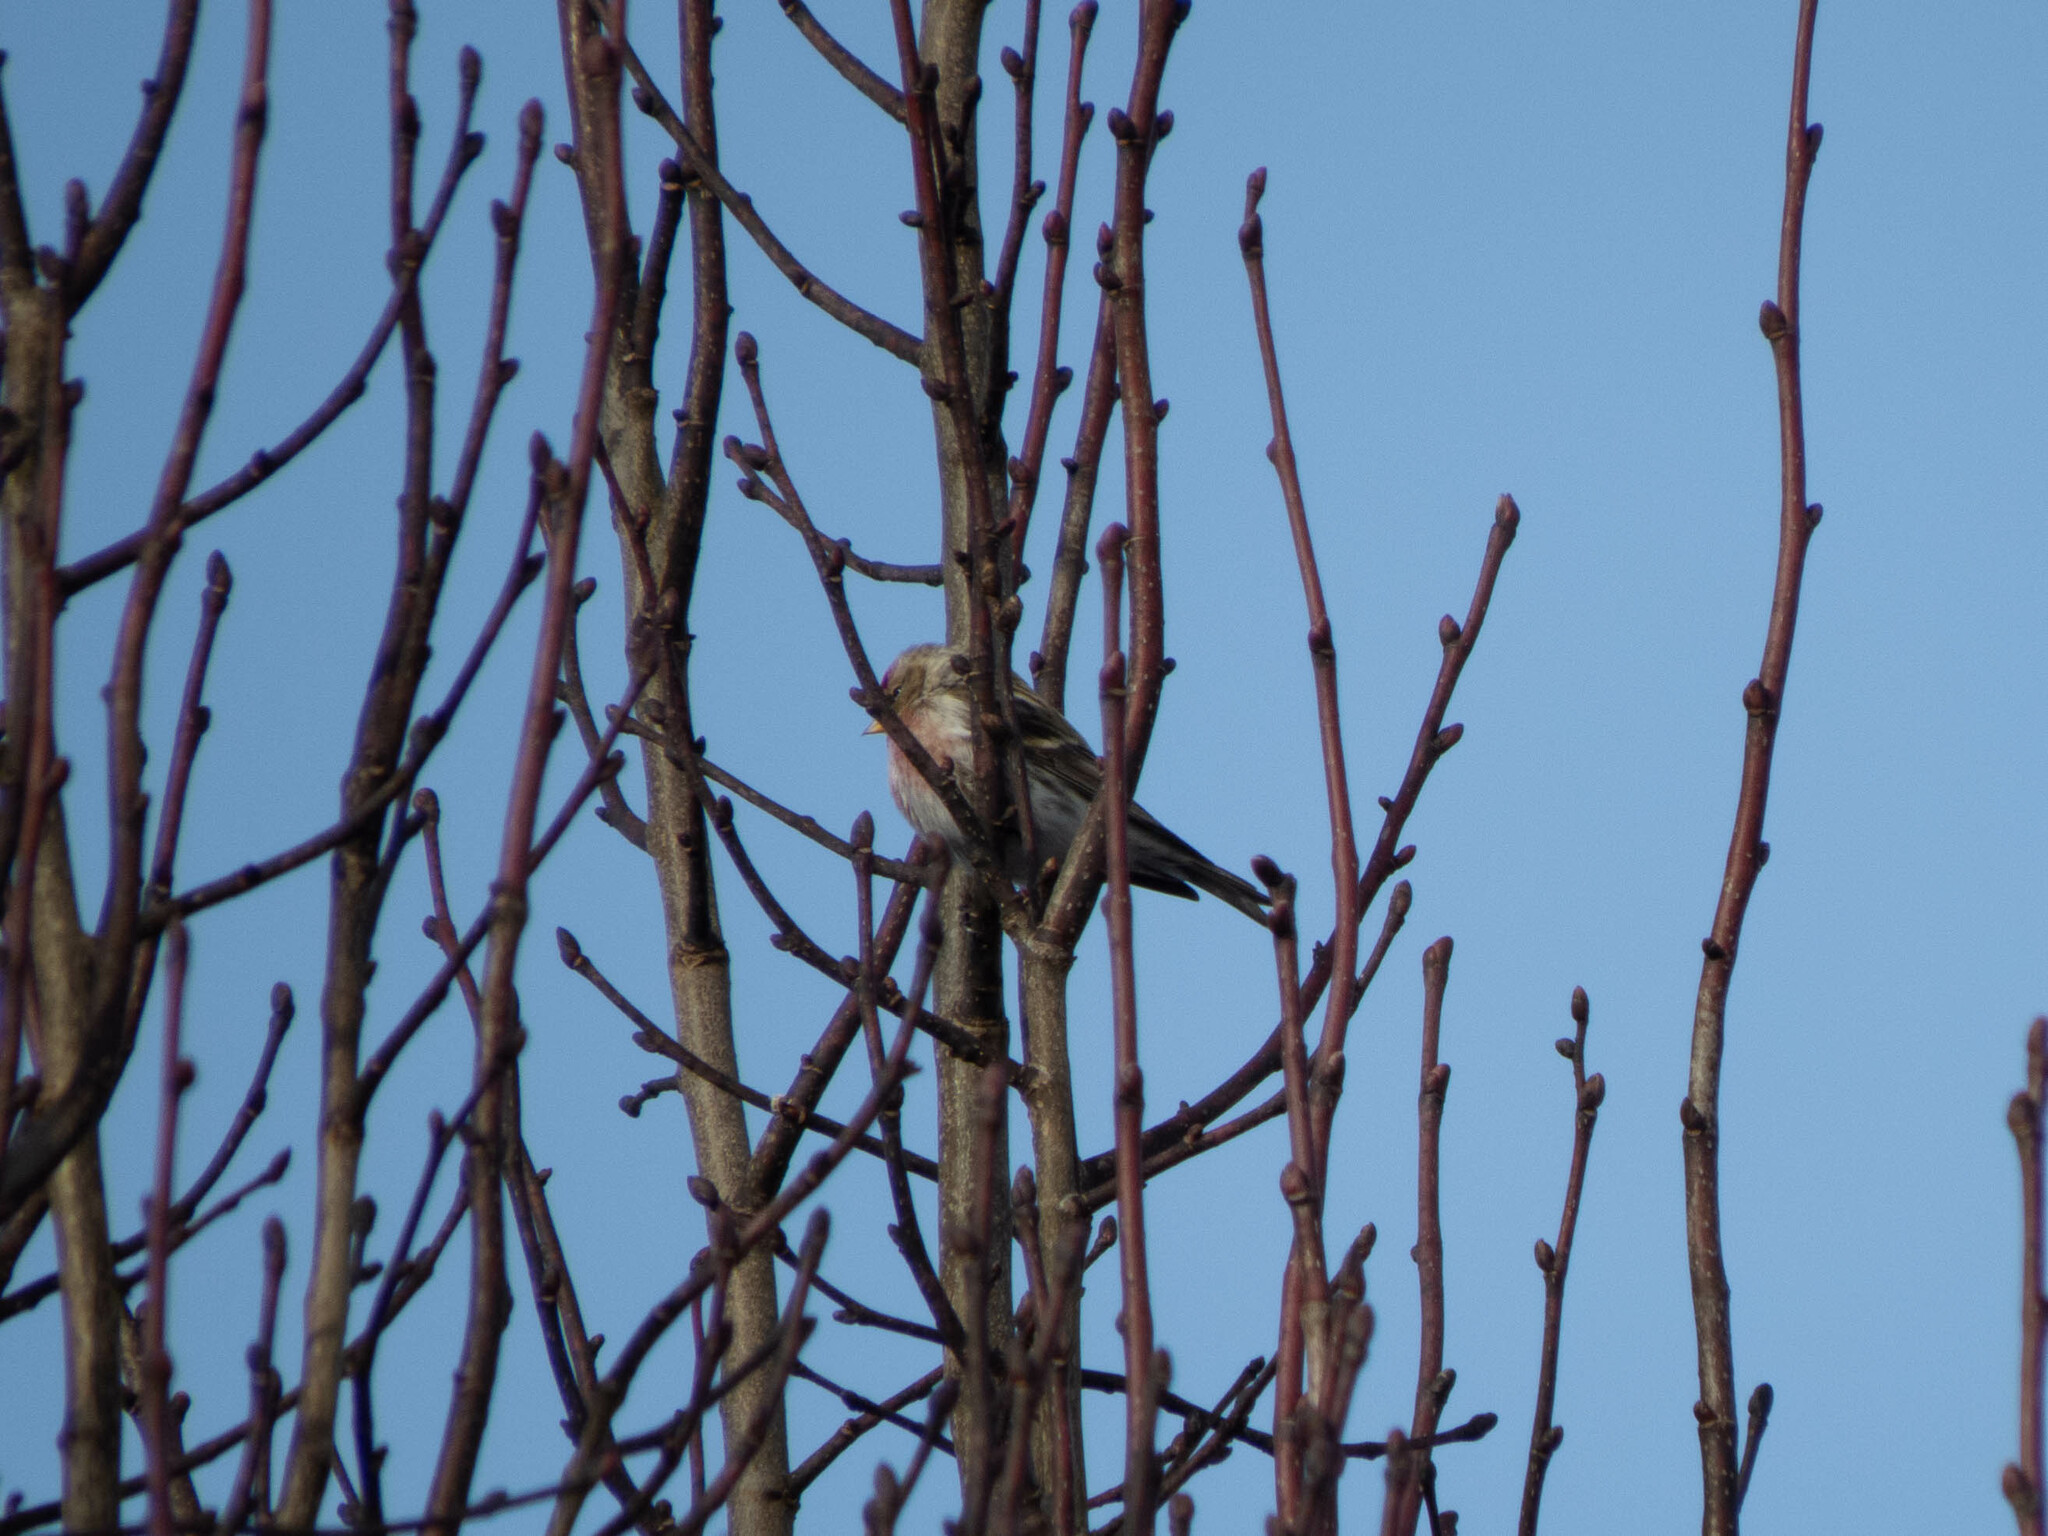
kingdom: Animalia
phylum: Chordata
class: Aves
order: Passeriformes
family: Fringillidae
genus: Acanthis
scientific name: Acanthis flammea
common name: Common redpoll
